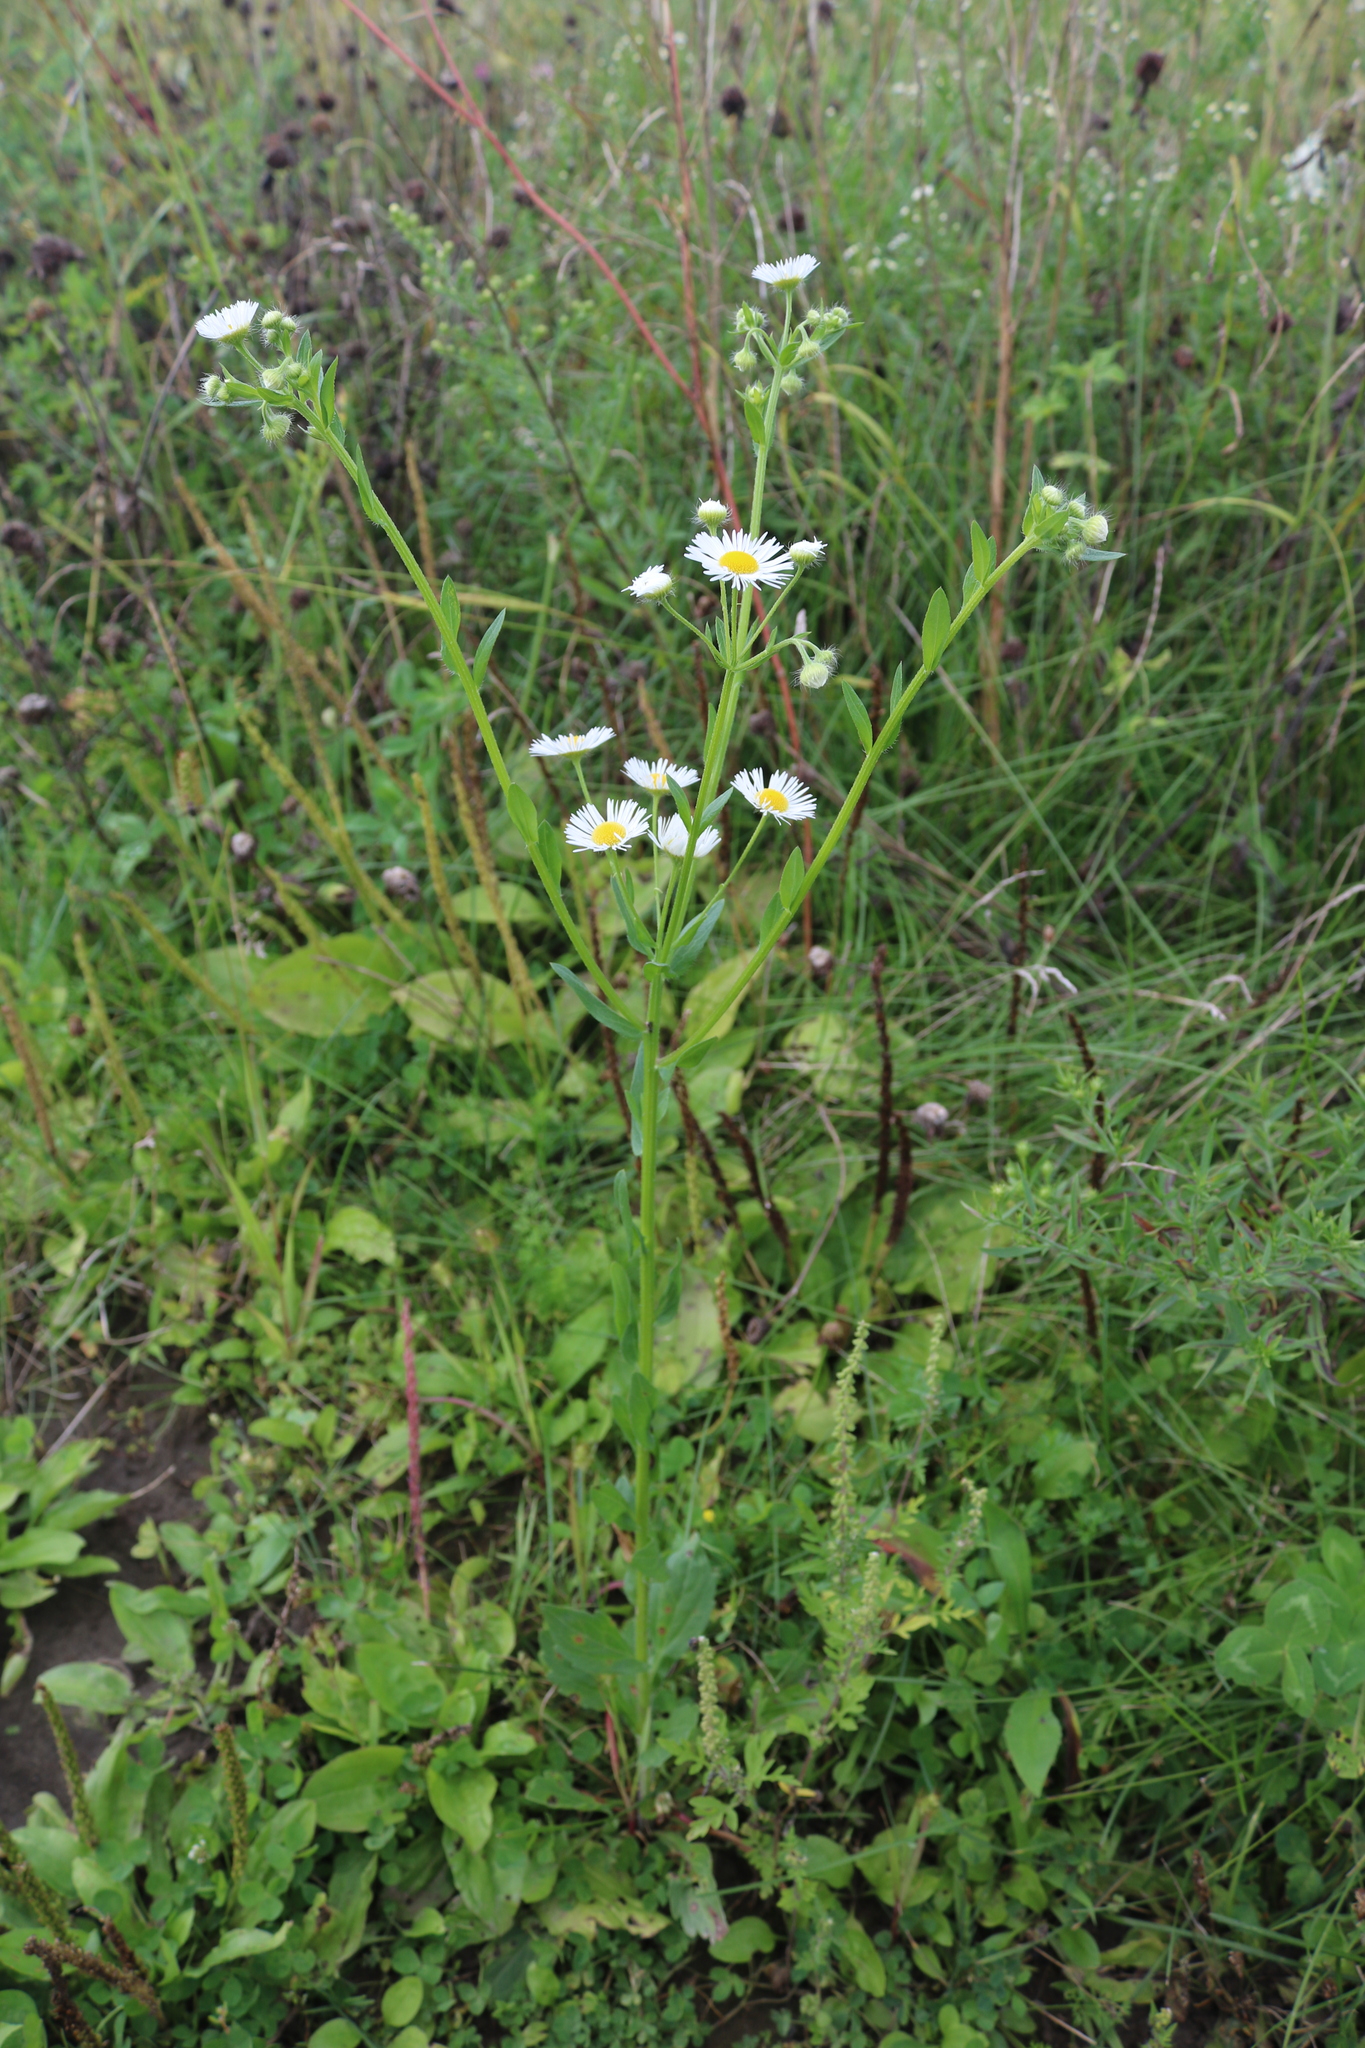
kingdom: Plantae
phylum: Tracheophyta
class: Magnoliopsida
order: Asterales
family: Asteraceae
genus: Erigeron
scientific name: Erigeron annuus
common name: Tall fleabane
